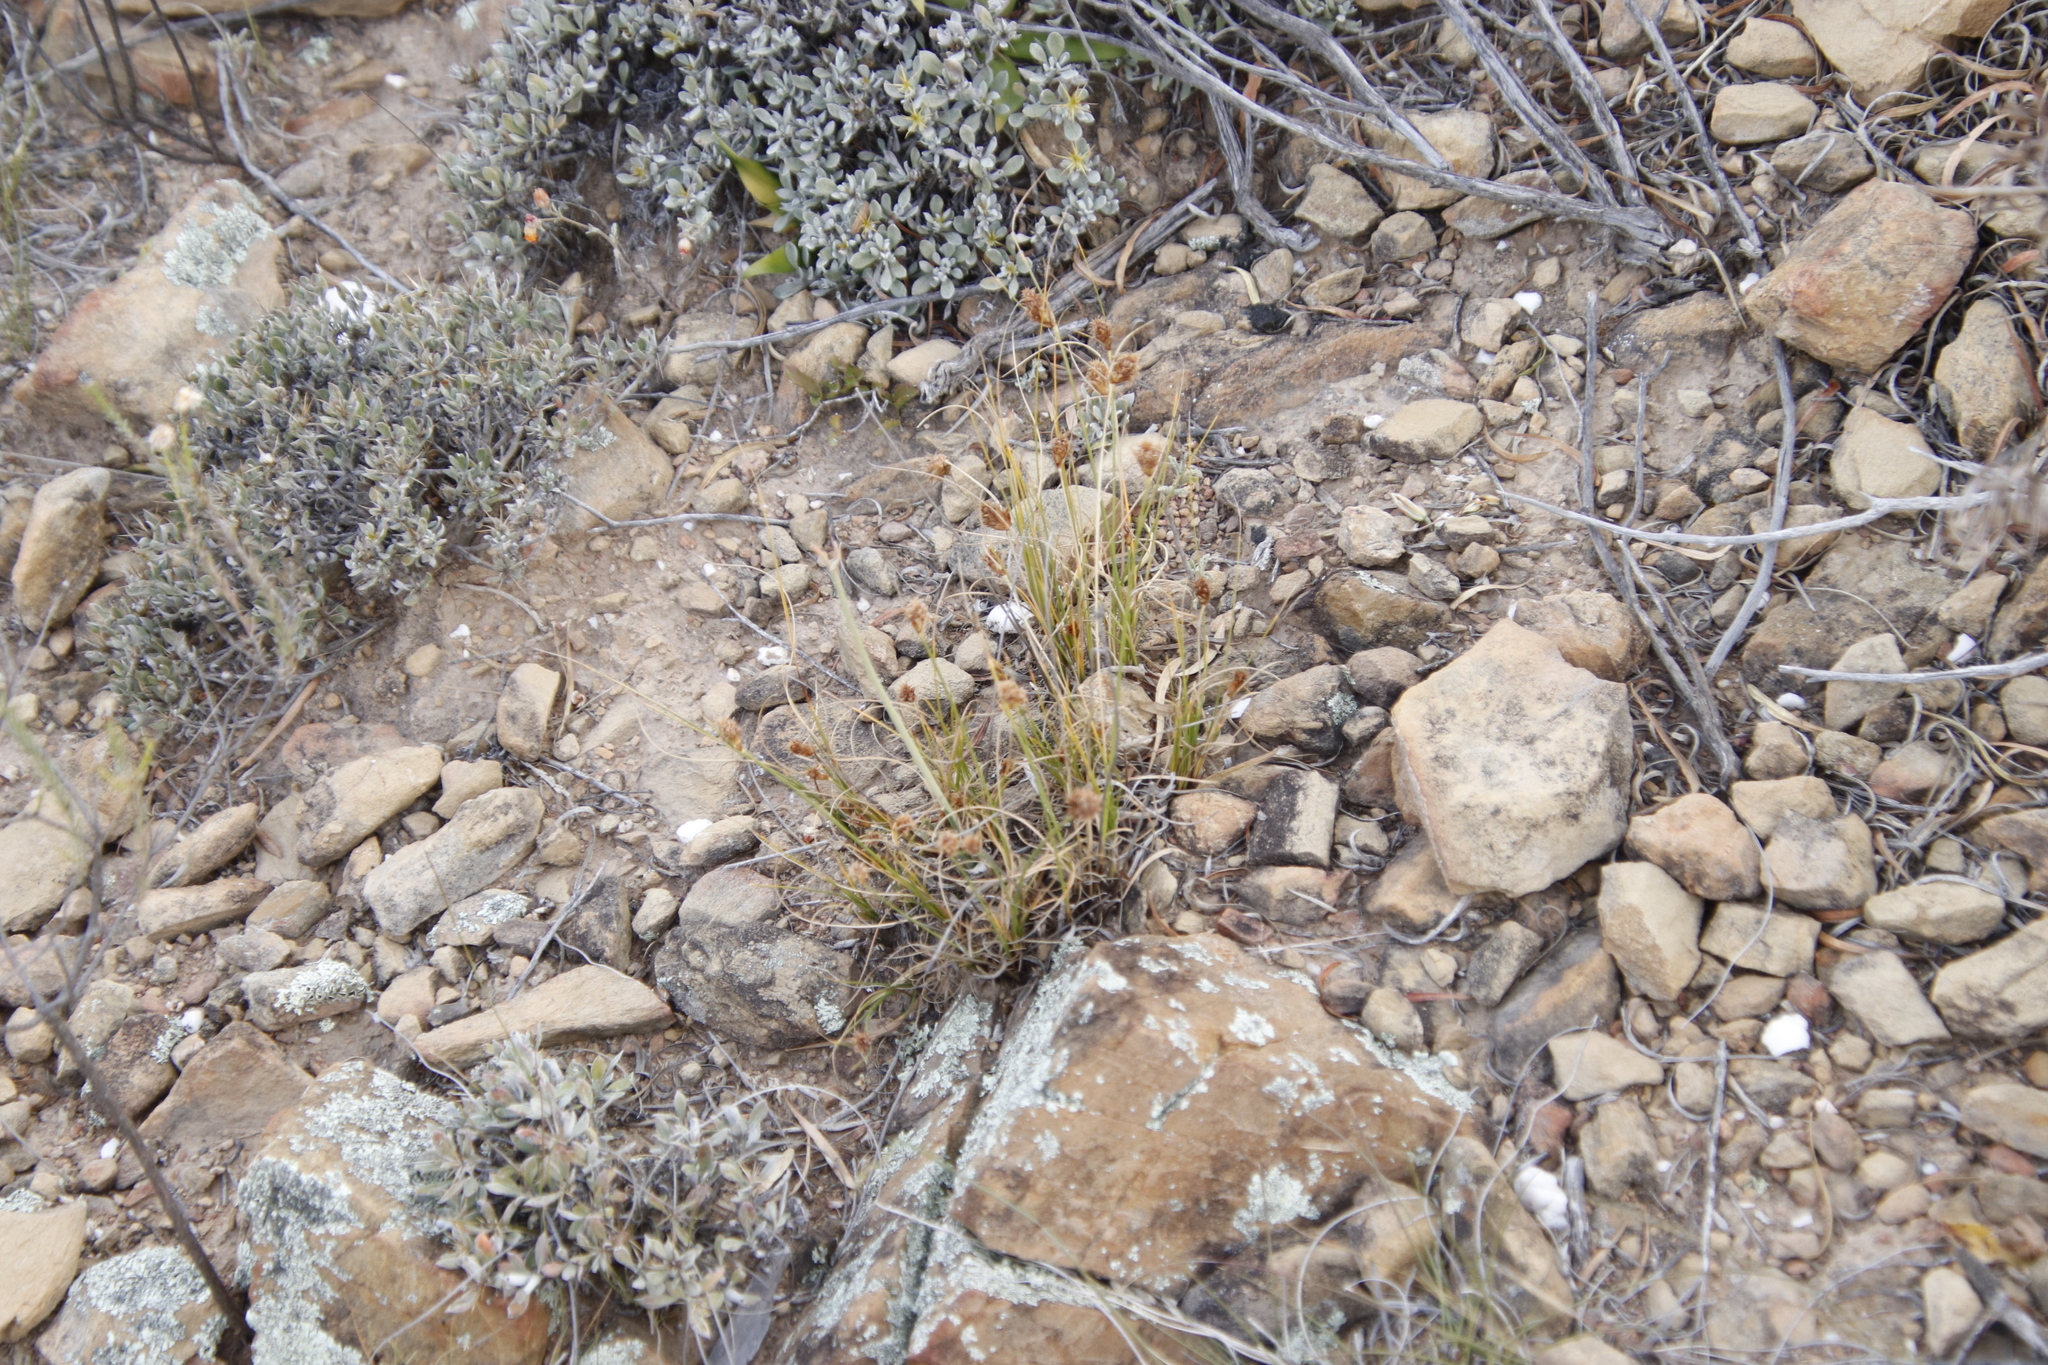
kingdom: Plantae
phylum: Tracheophyta
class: Liliopsida
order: Poales
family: Cyperaceae
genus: Ficinia
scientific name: Ficinia nigrescens
